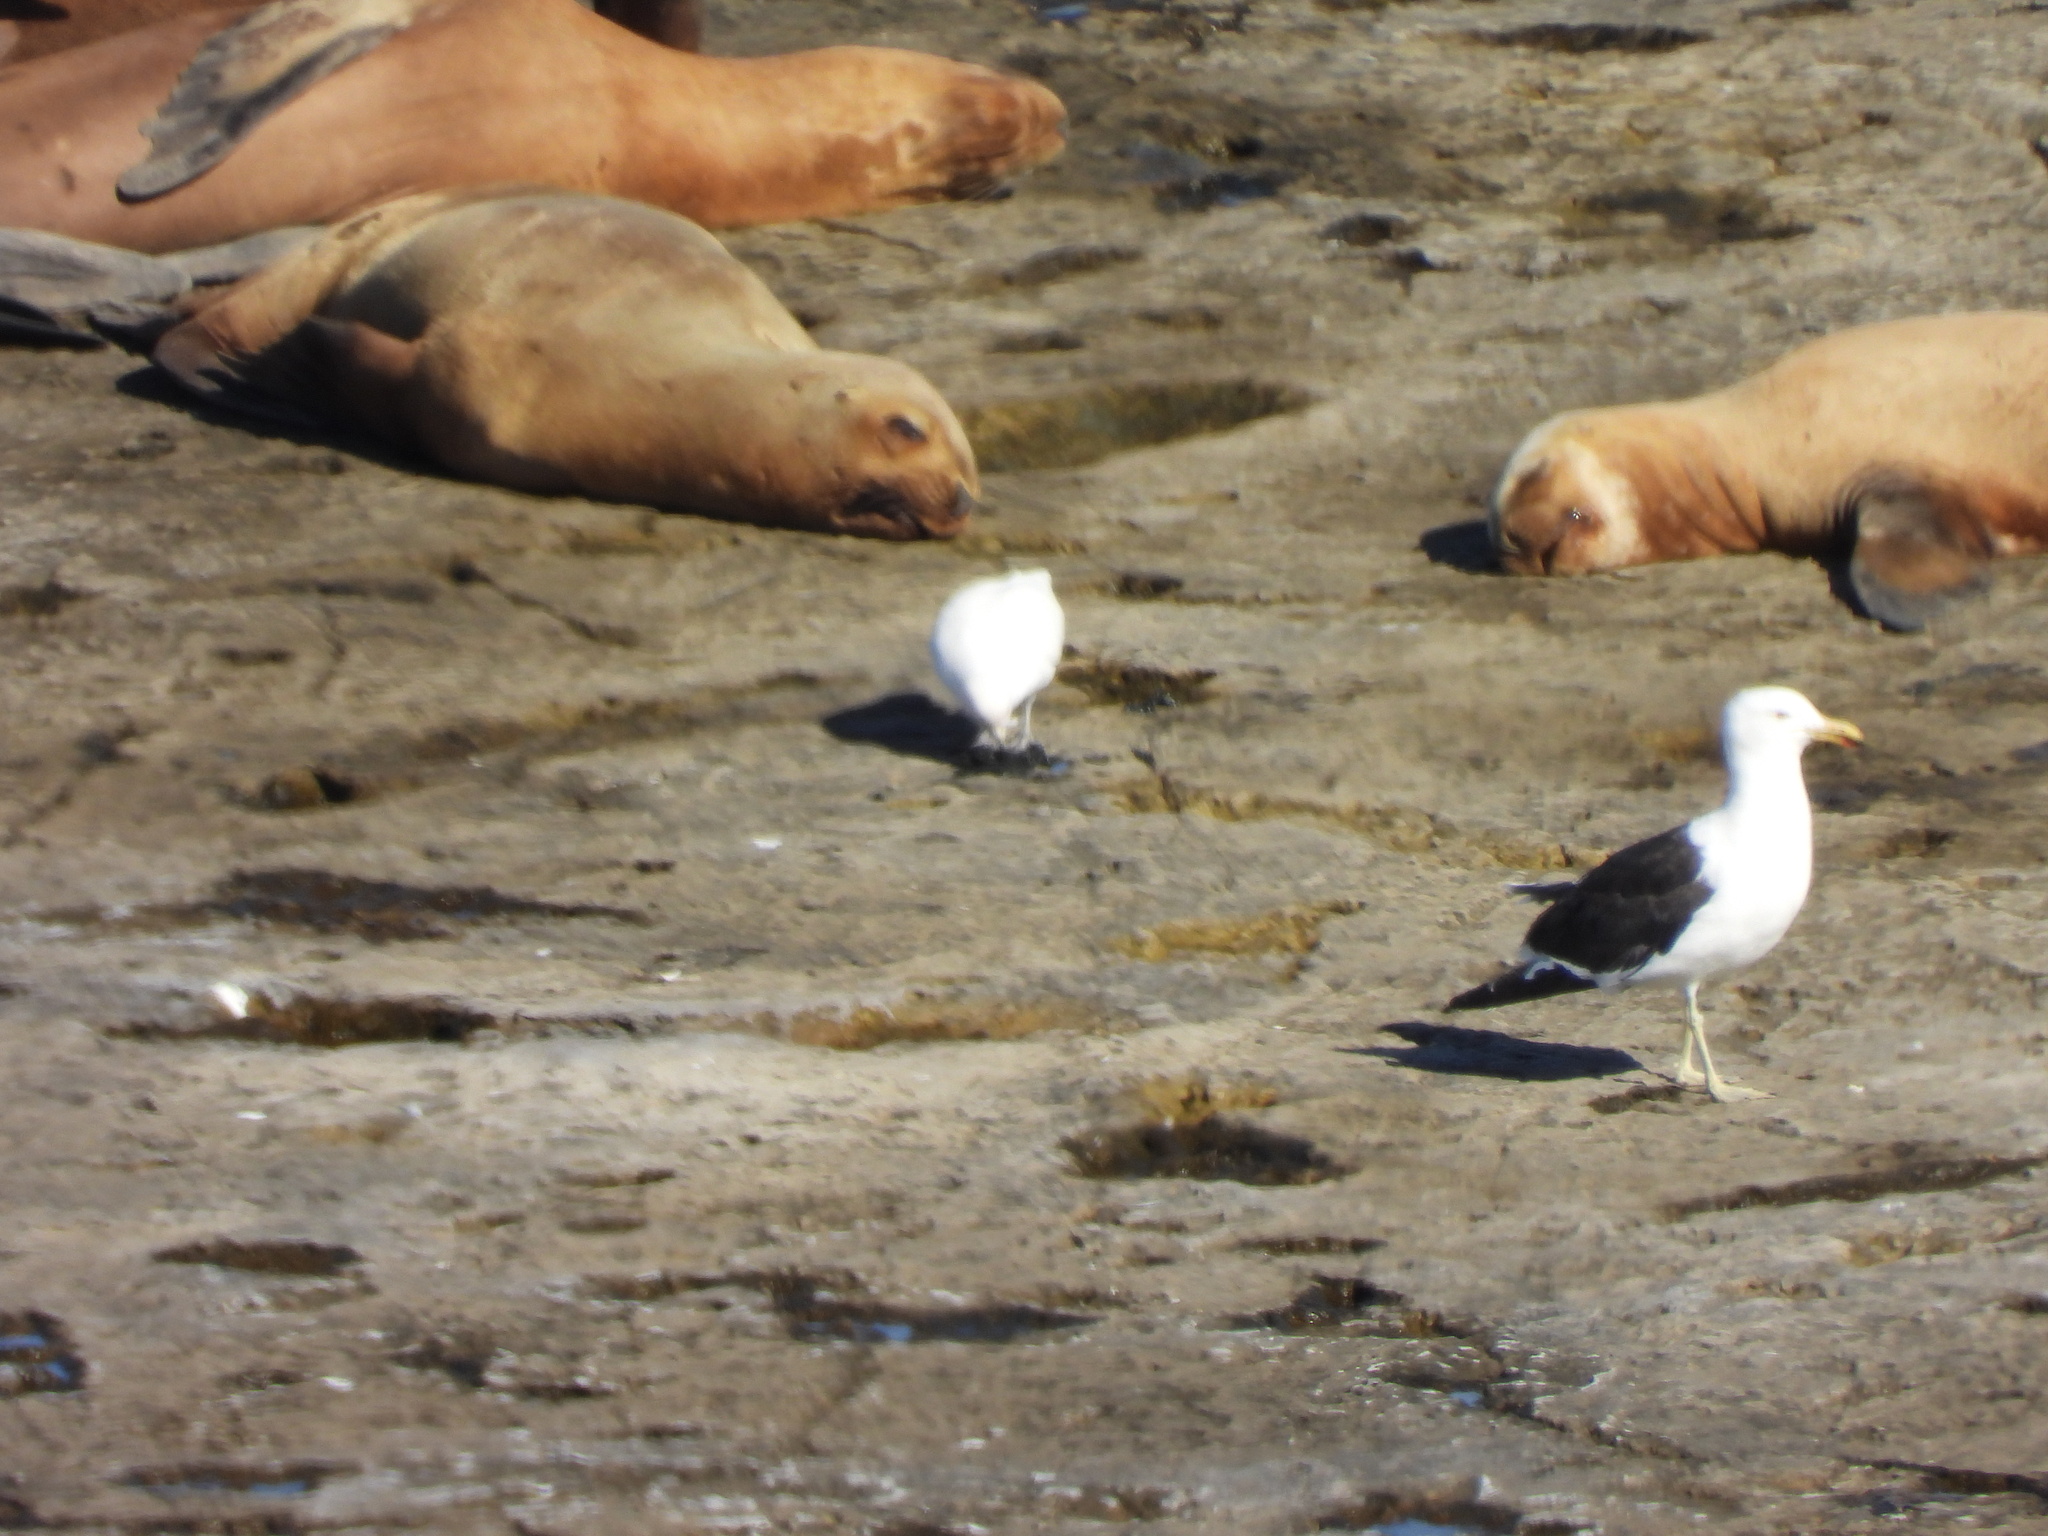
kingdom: Animalia
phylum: Chordata
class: Aves
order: Charadriiformes
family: Chionidae
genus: Chionis
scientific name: Chionis albus
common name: Snowy sheathbill
